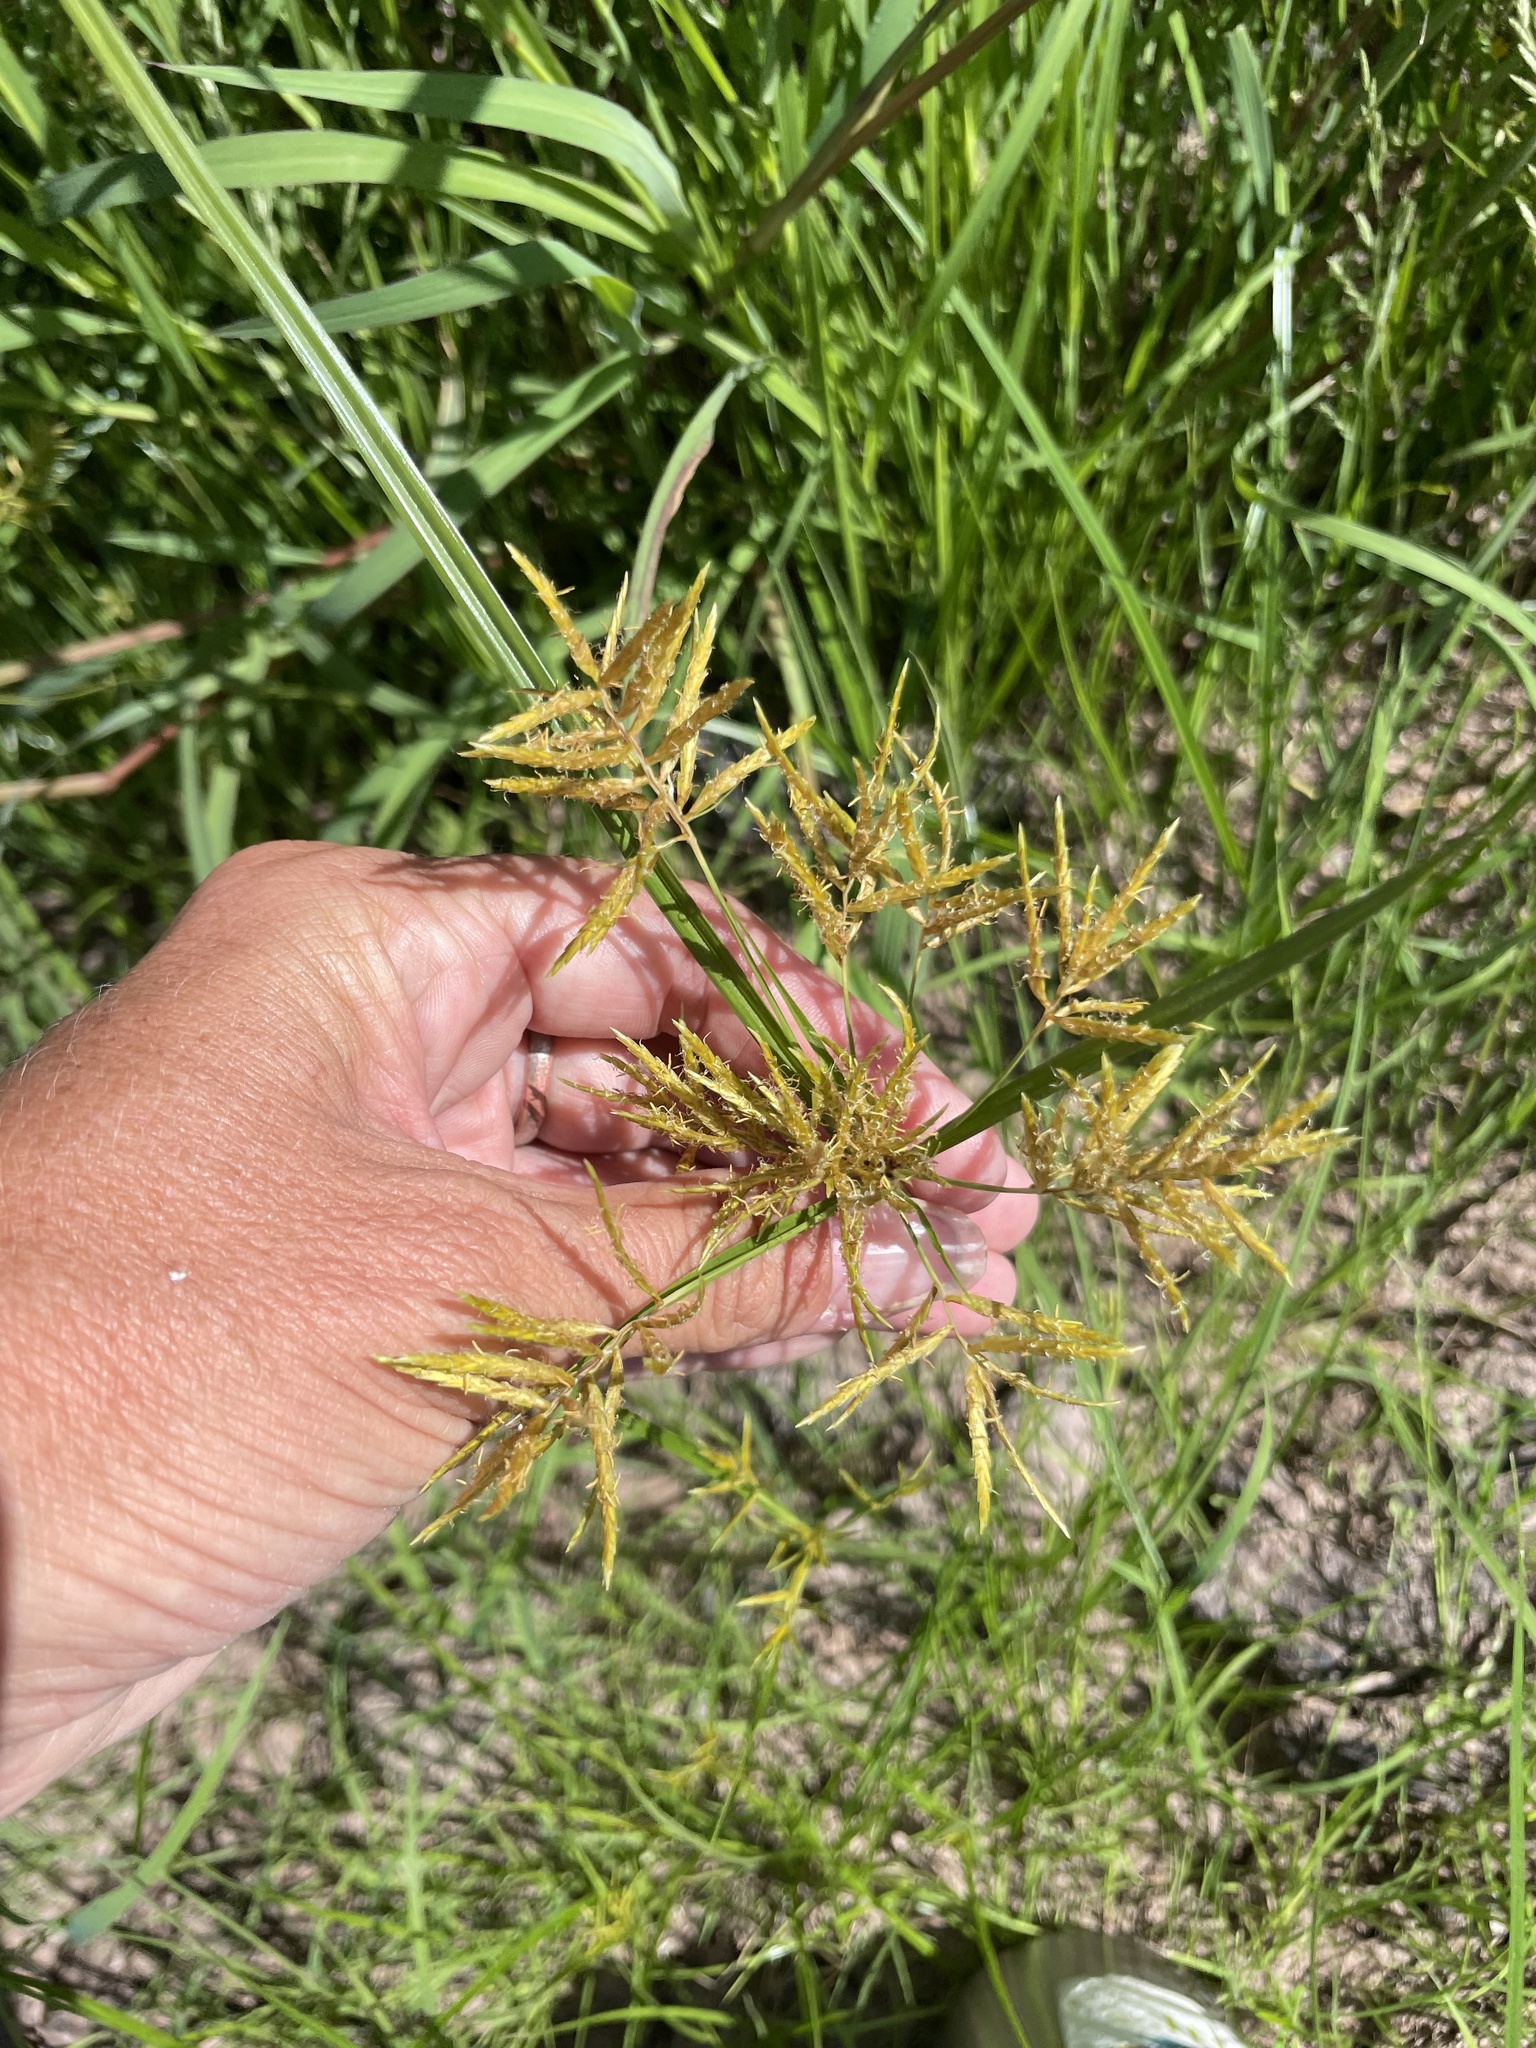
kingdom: Plantae
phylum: Tracheophyta
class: Liliopsida
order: Poales
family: Cyperaceae
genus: Cyperus
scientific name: Cyperus esculentus
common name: Yellow nutsedge
